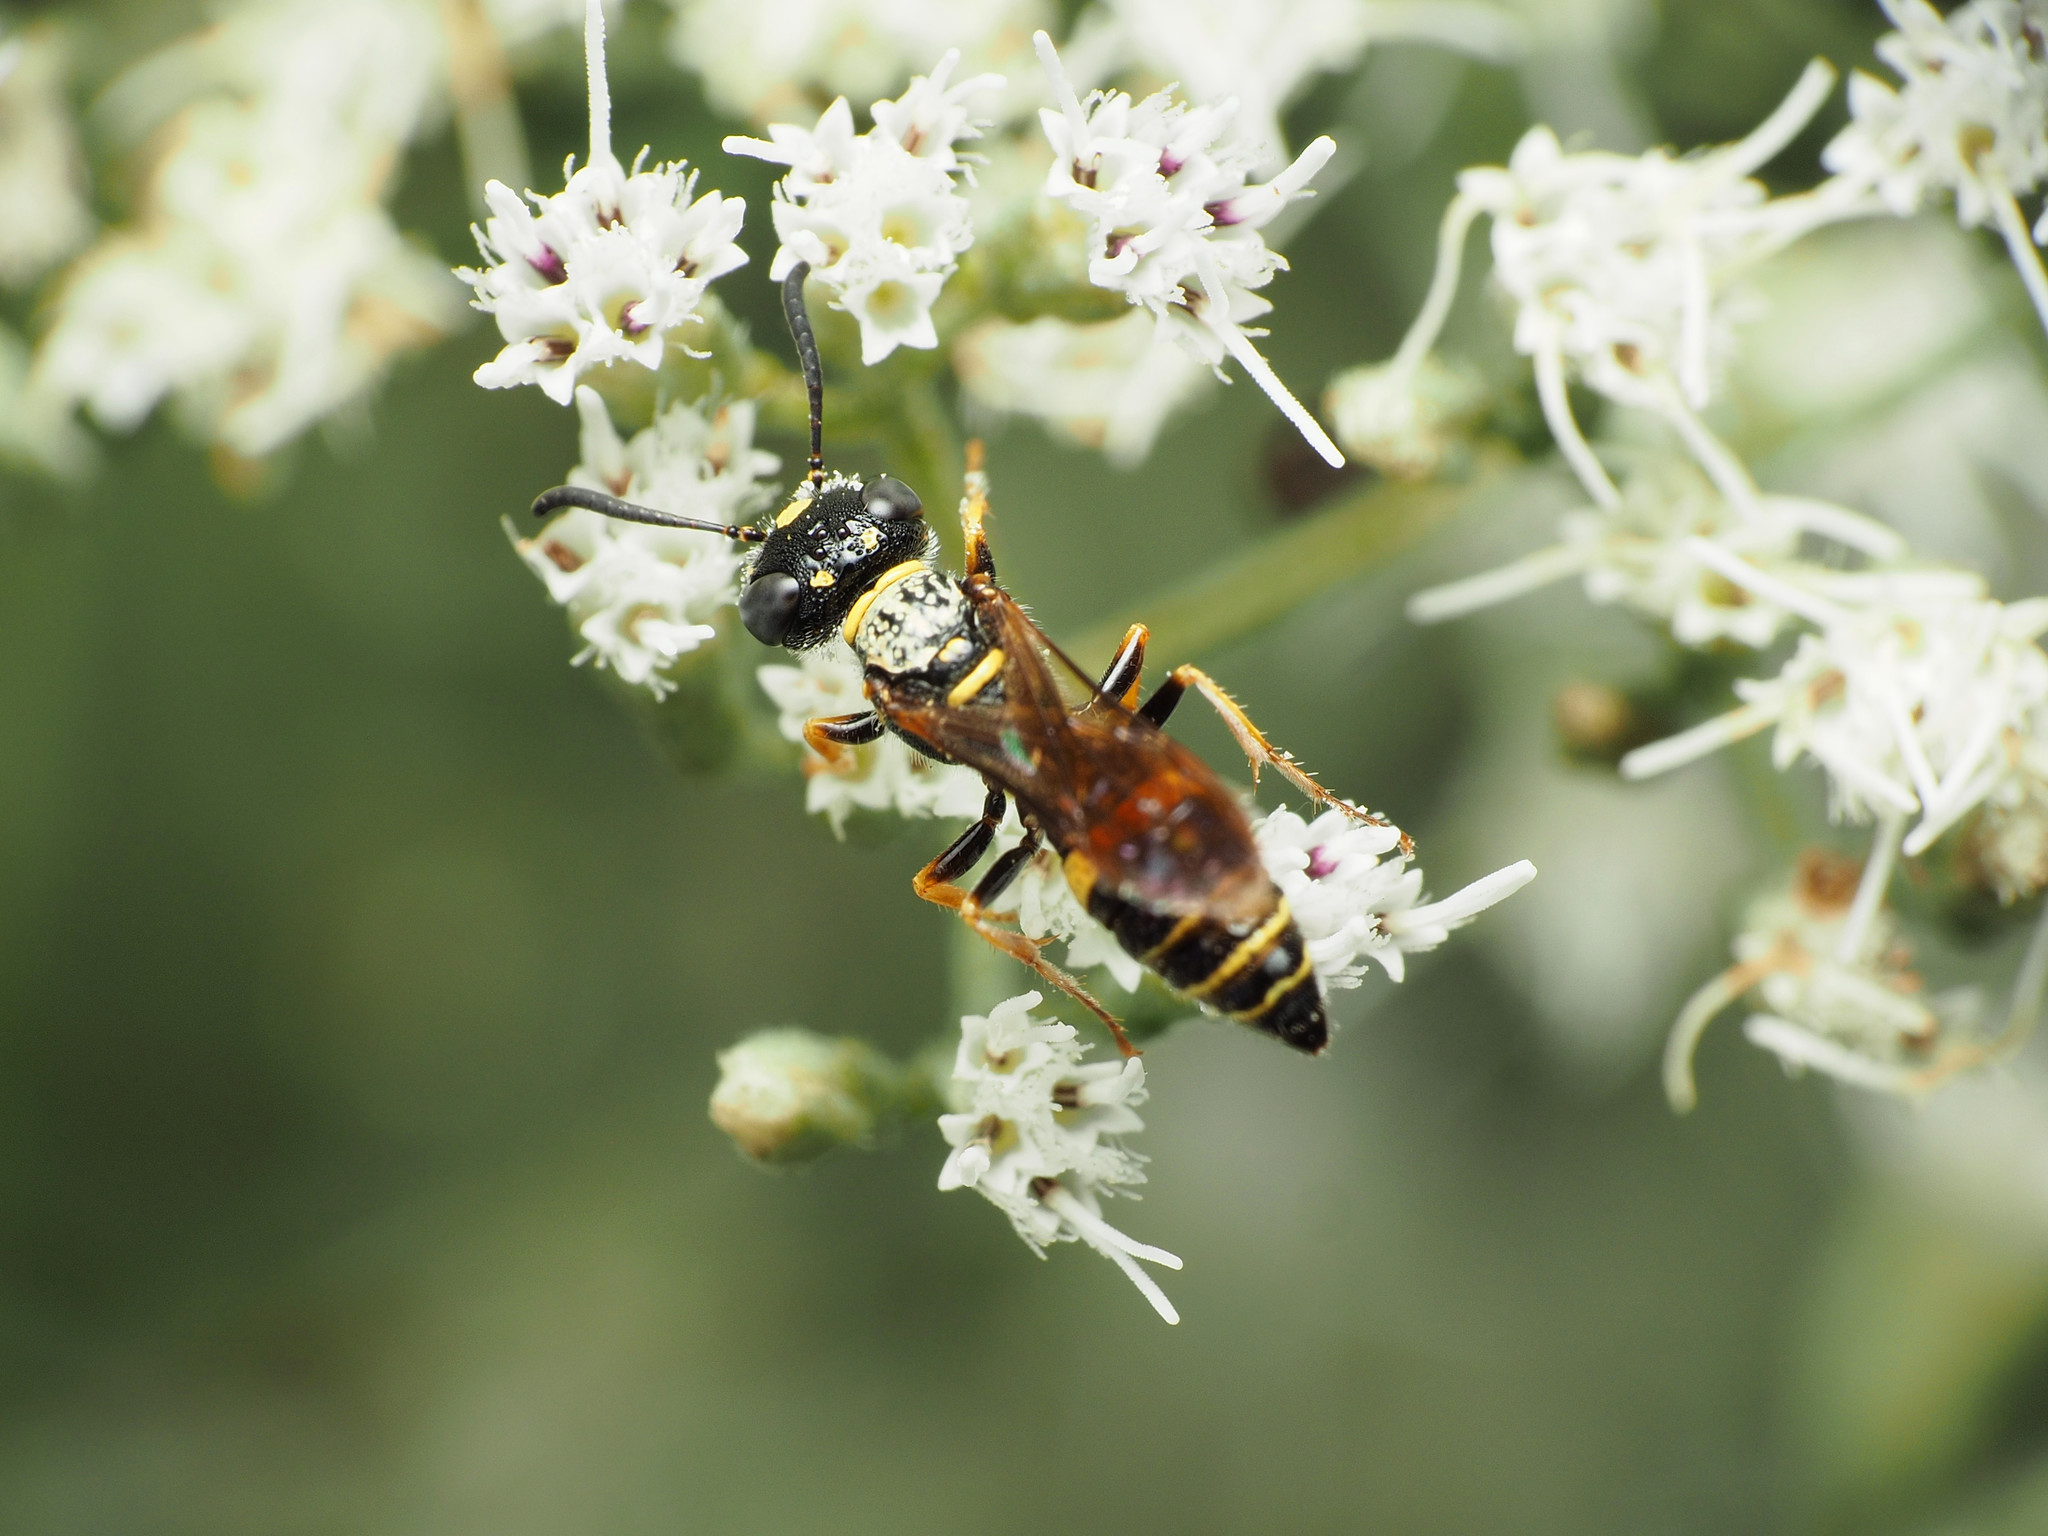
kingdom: Animalia
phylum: Arthropoda
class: Insecta
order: Hymenoptera
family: Crabronidae
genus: Philanthus
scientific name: Philanthus gibbosus
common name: Humped beewolf
